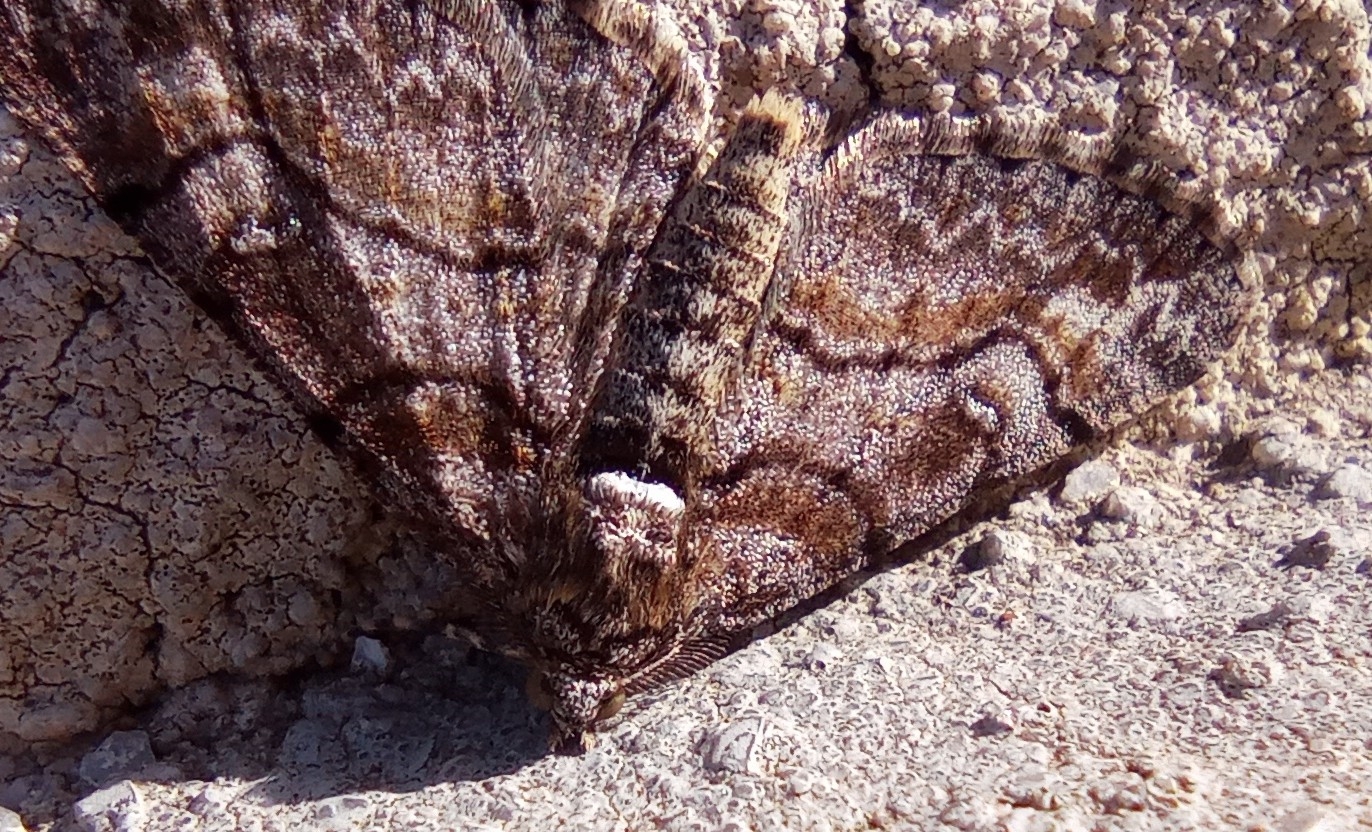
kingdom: Animalia
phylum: Arthropoda
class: Insecta
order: Lepidoptera
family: Geometridae
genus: Cleora
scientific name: Cleora cinctaria
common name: Ringed carpet
